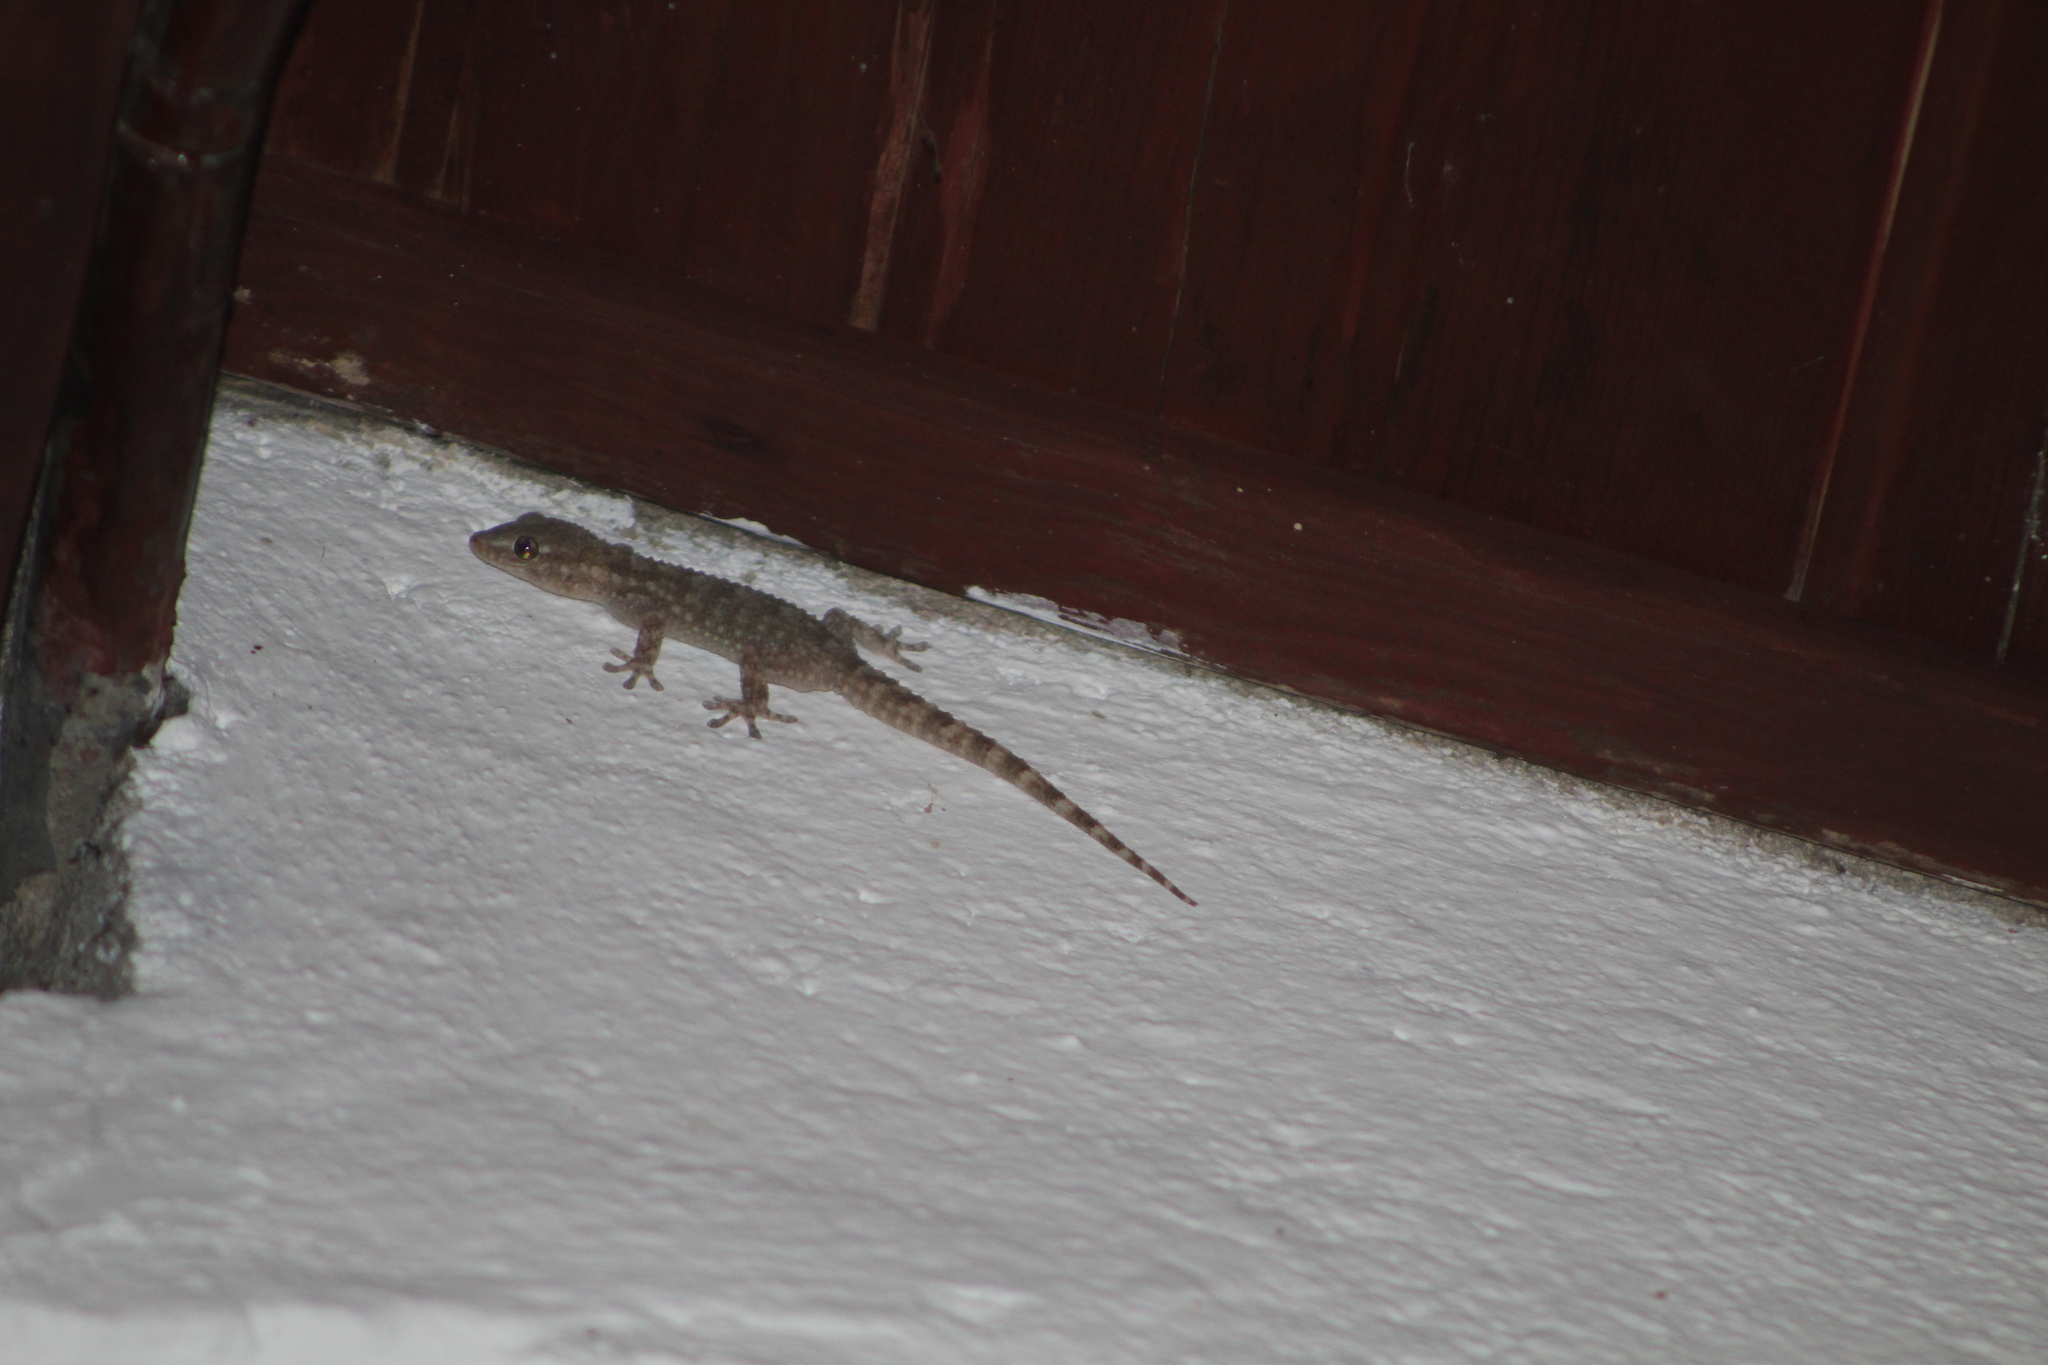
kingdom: Animalia
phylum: Chordata
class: Squamata
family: Phyllodactylidae
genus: Tarentola
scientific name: Tarentola mauritanica
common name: Moorish gecko
